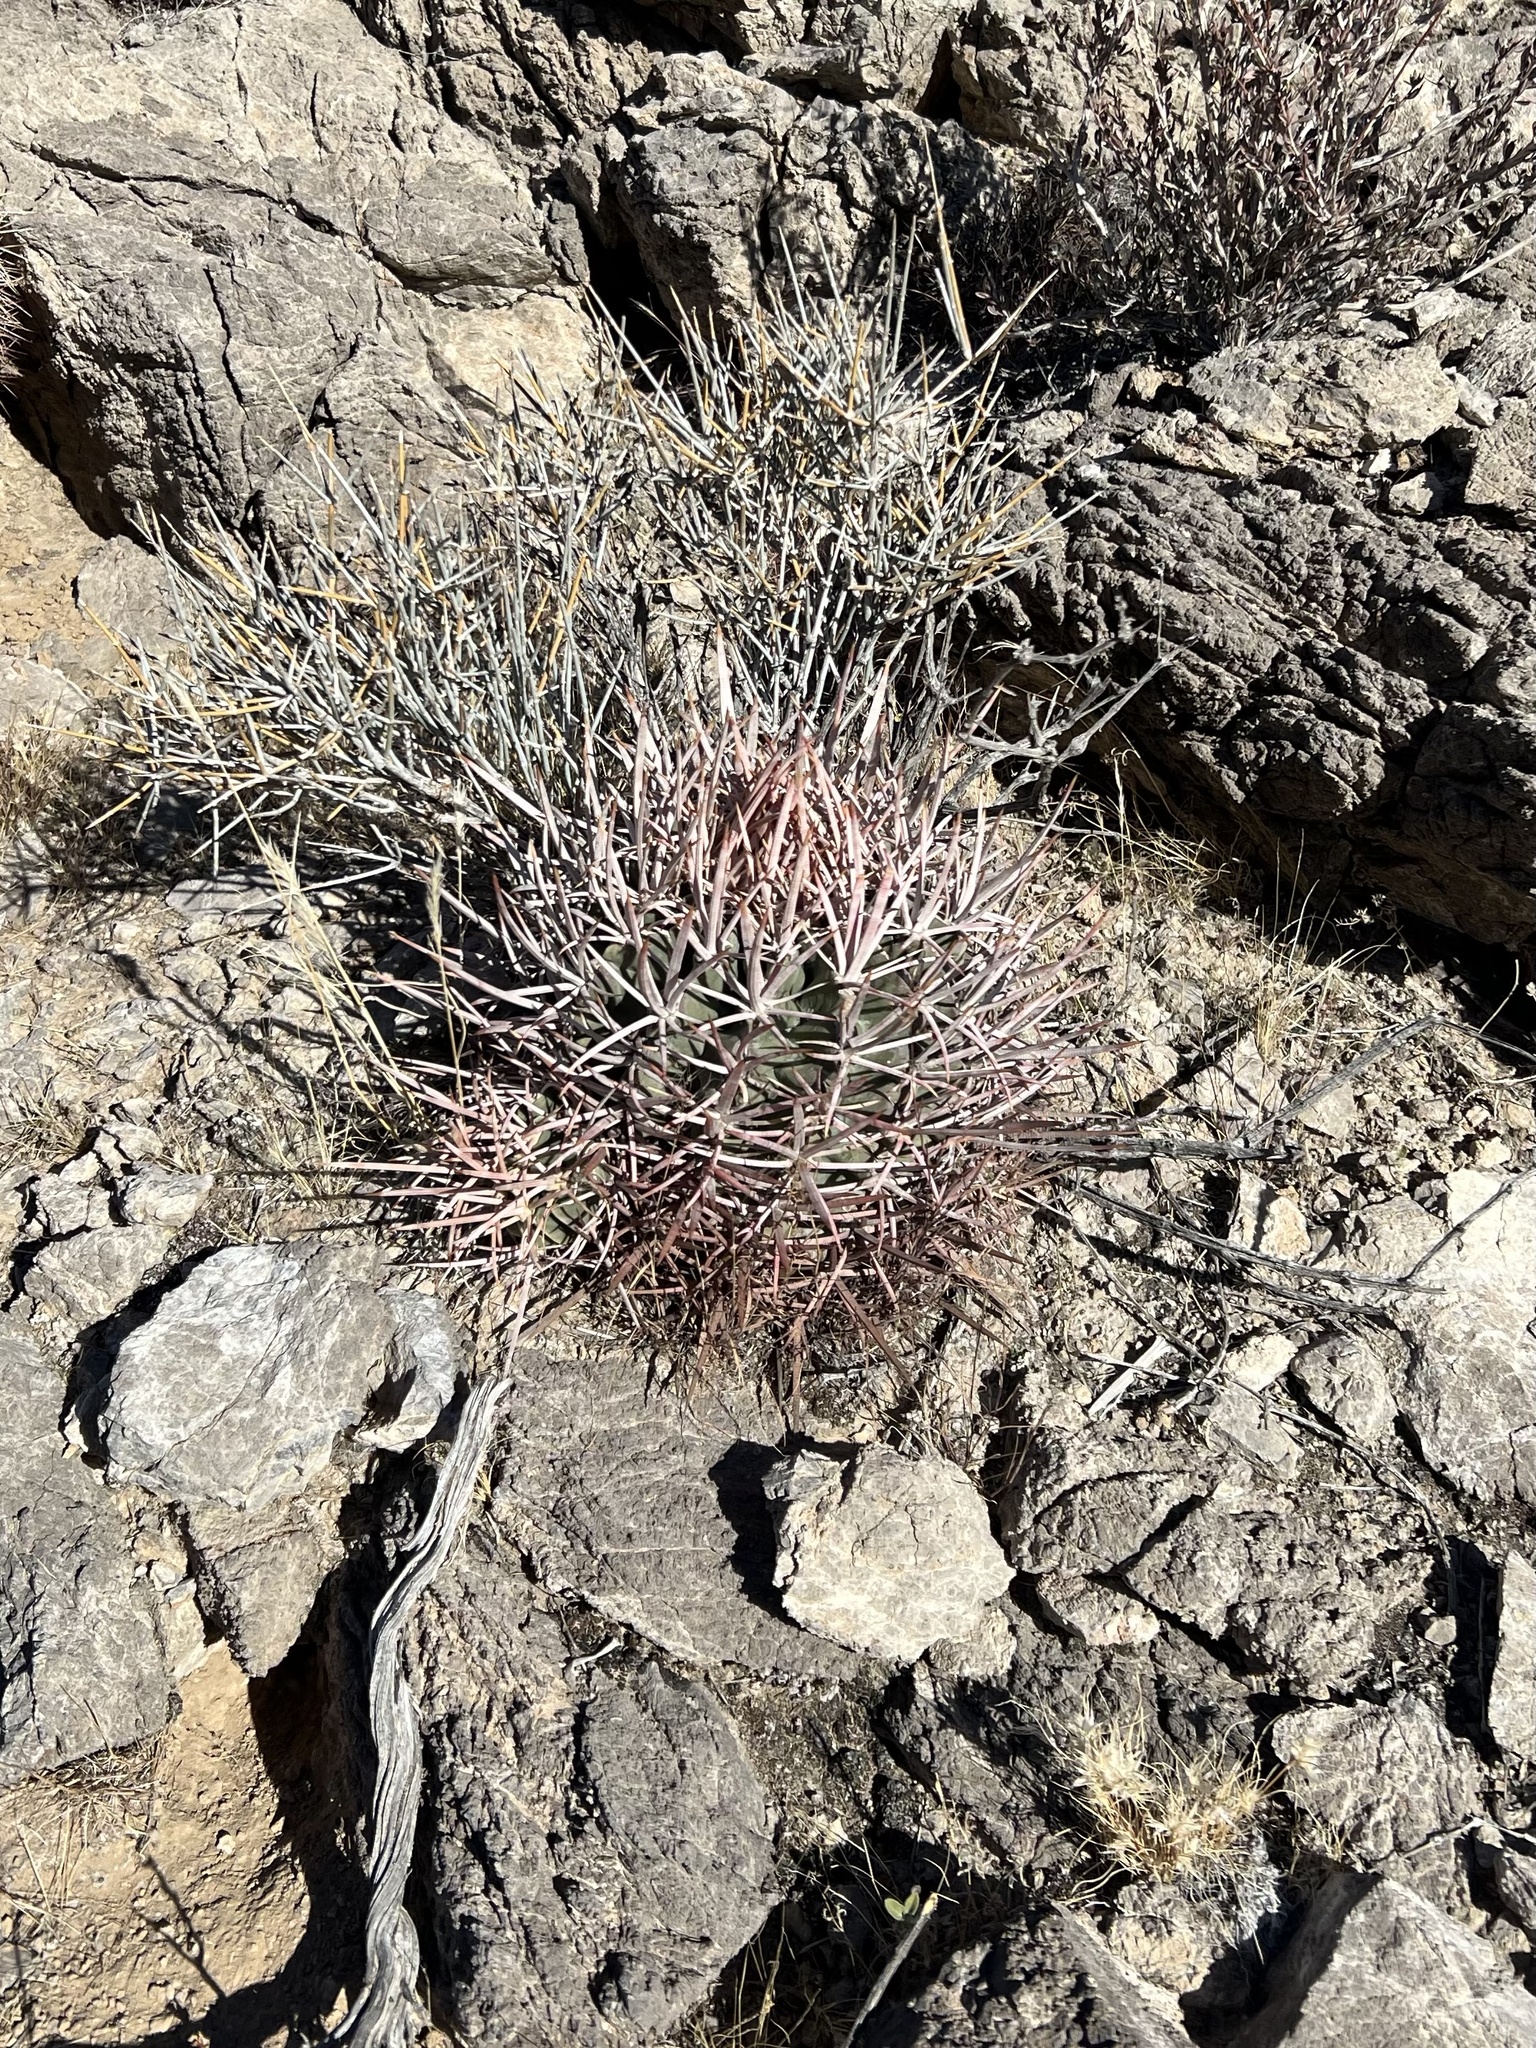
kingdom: Plantae
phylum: Tracheophyta
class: Magnoliopsida
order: Caryophyllales
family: Cactaceae
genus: Echinocactus
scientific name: Echinocactus polycephalus
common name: Cottontop cactus
